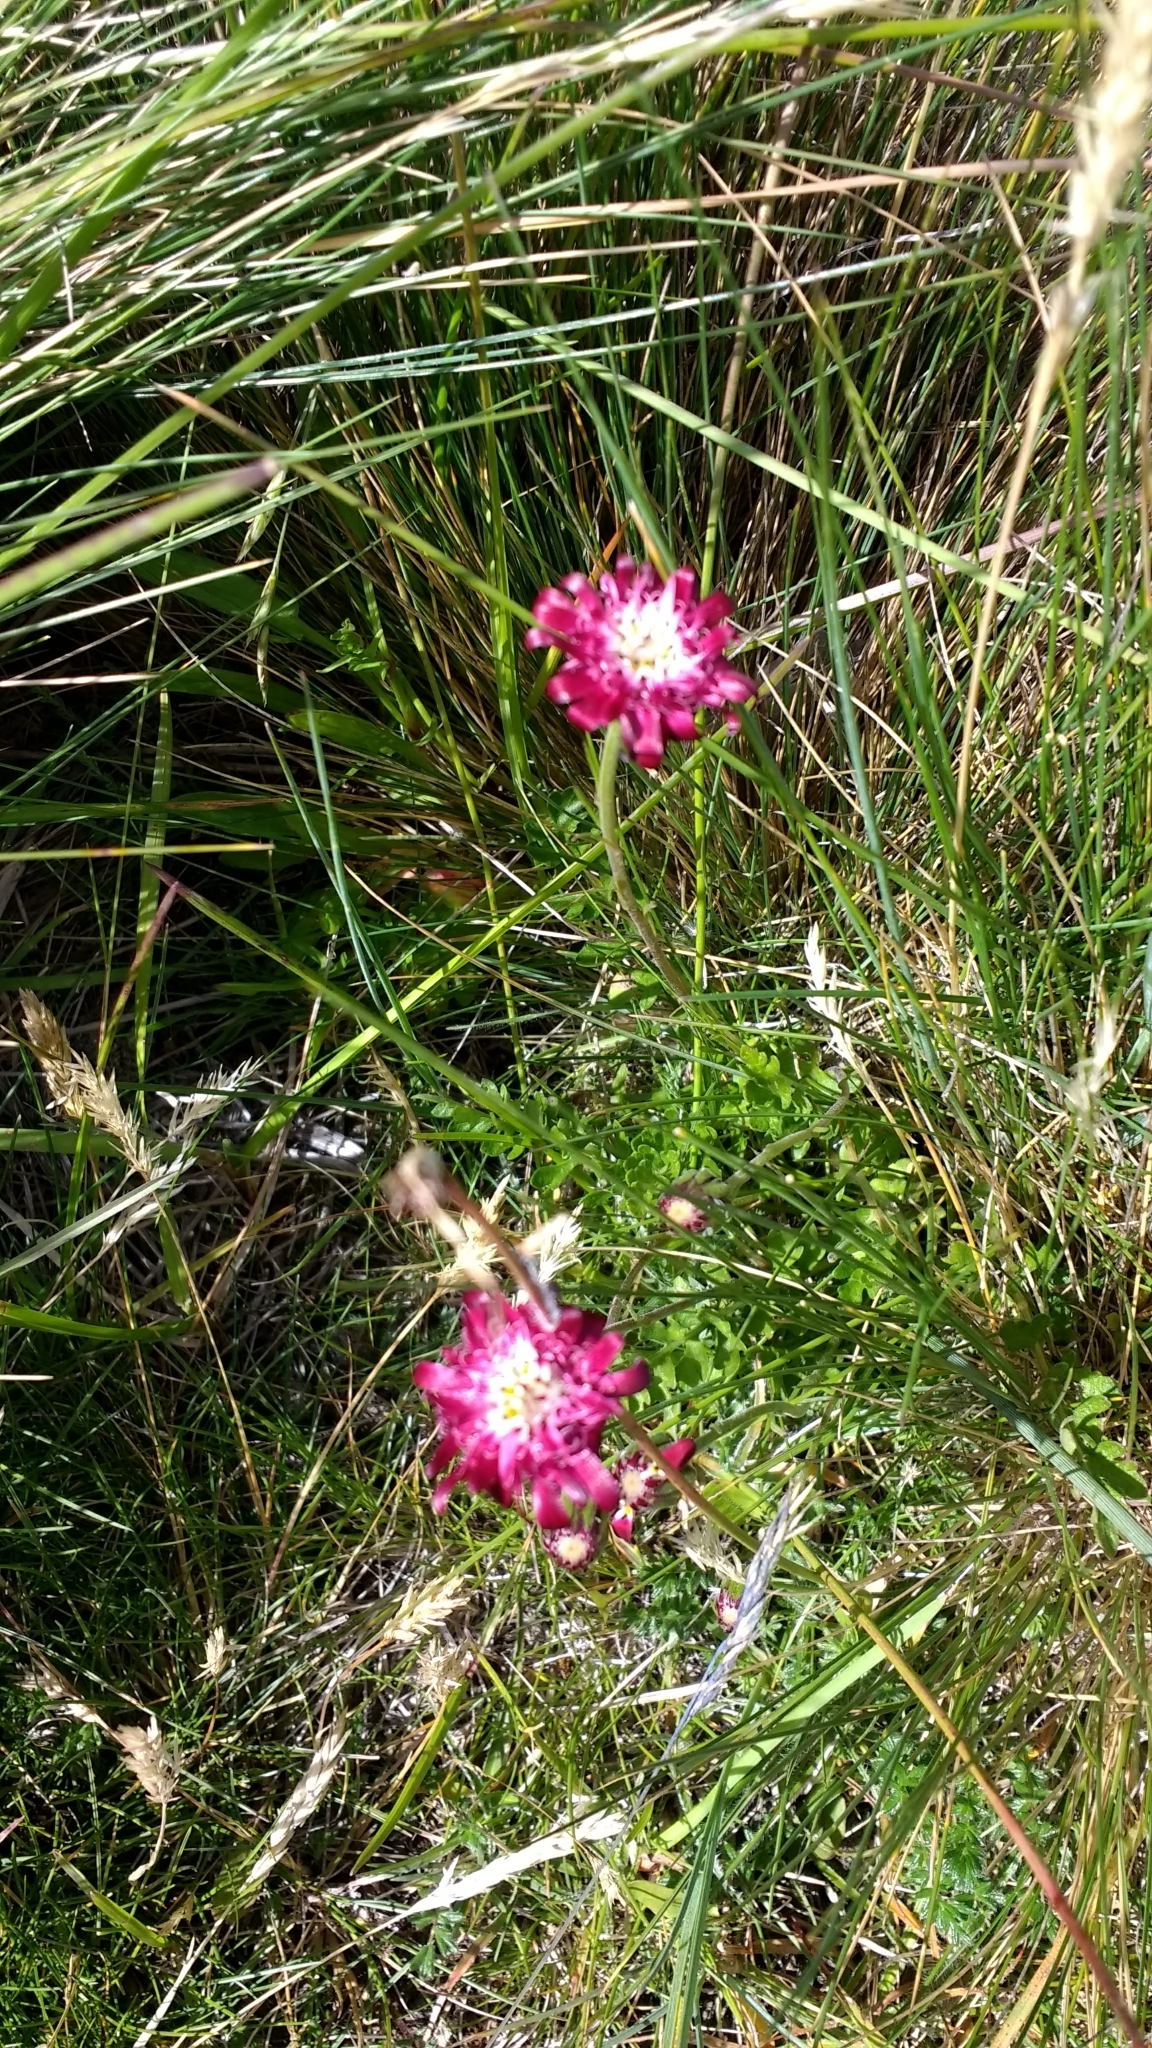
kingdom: Plantae
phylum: Tracheophyta
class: Magnoliopsida
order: Asterales
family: Asteraceae
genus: Leucheria
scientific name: Leucheria purpurea
